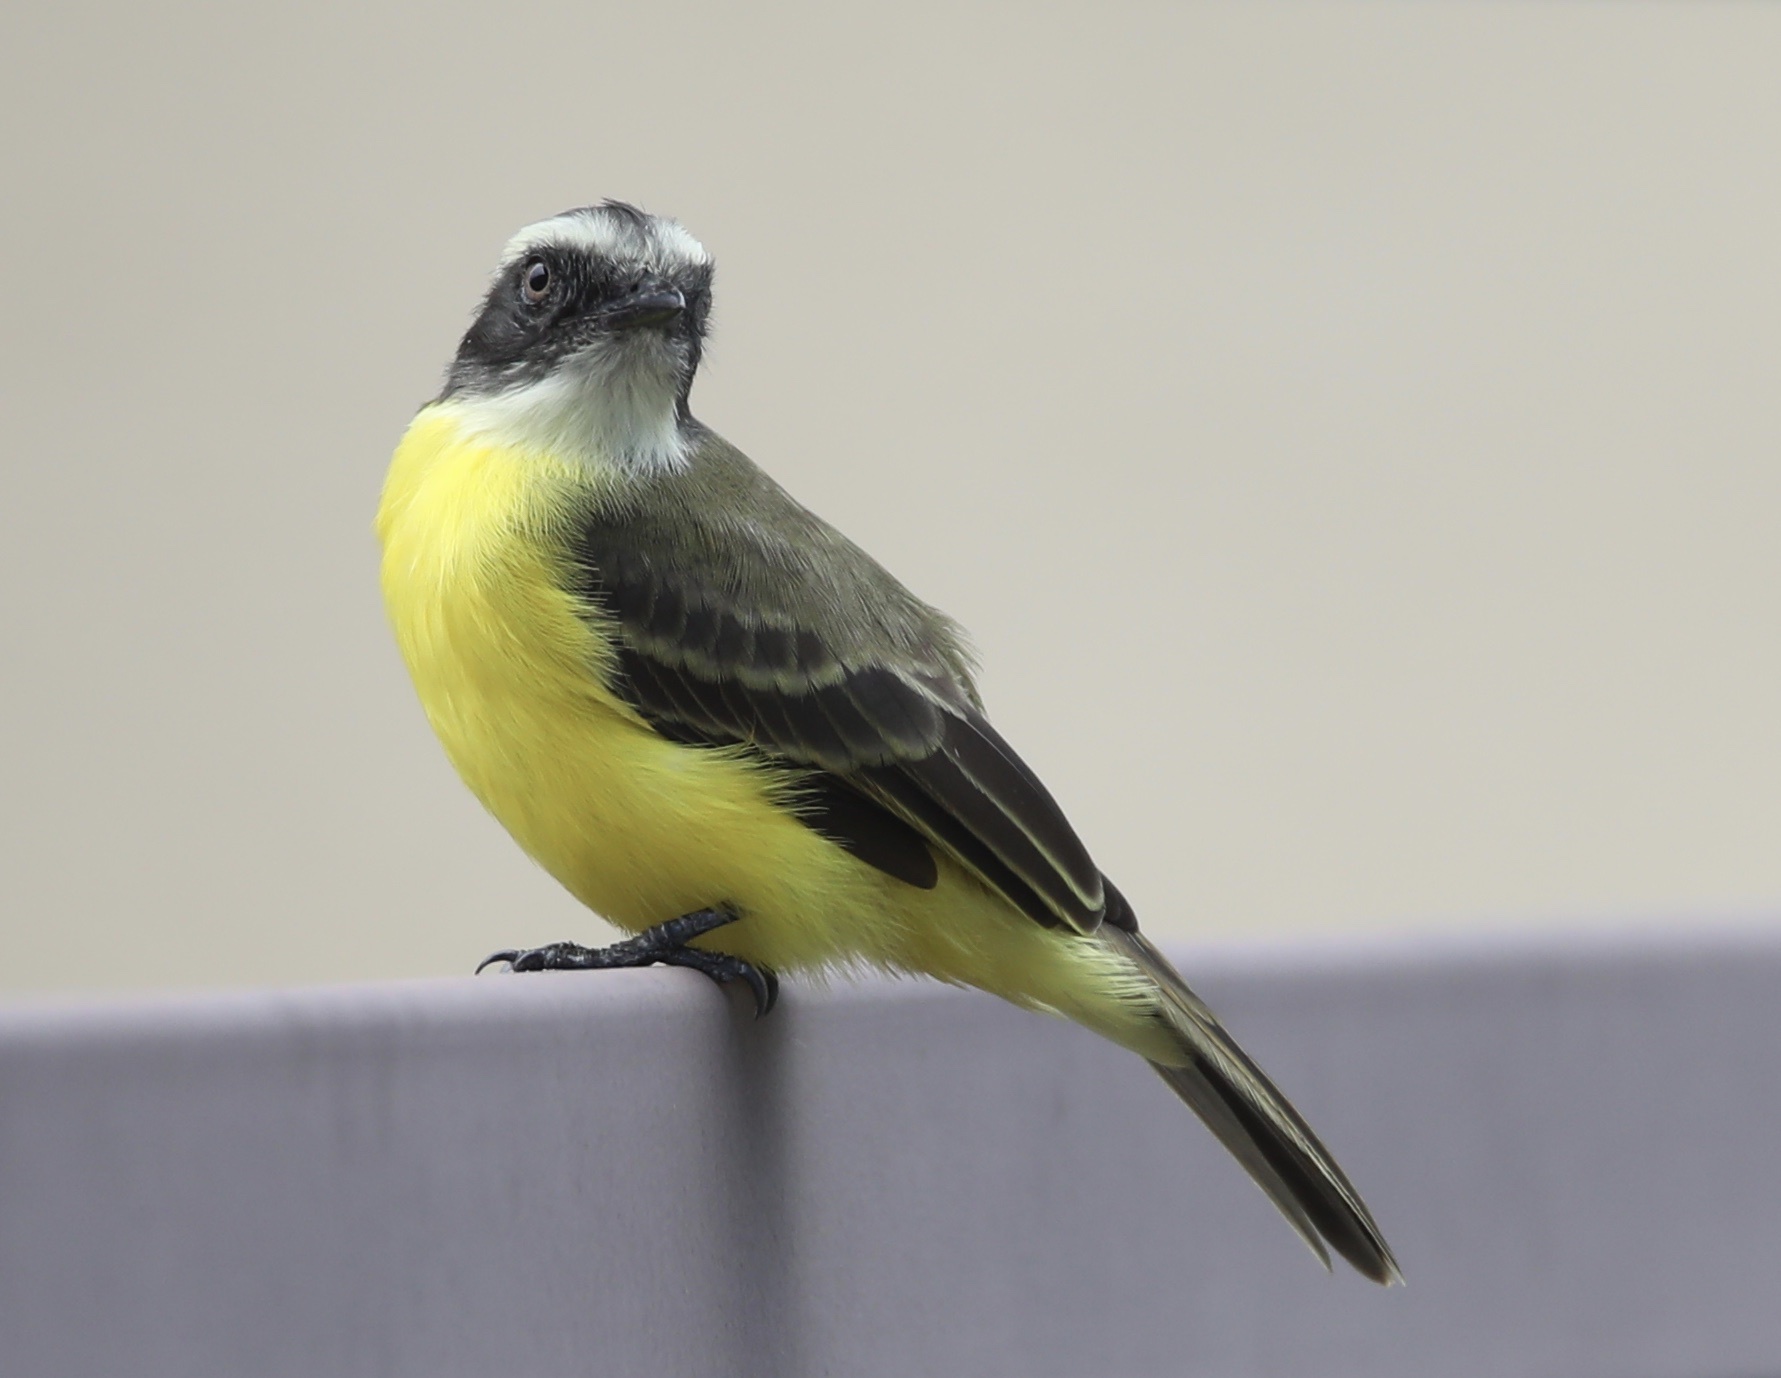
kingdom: Animalia
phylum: Chordata
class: Aves
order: Passeriformes
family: Tyrannidae
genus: Myiozetetes
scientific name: Myiozetetes similis
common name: Social flycatcher
